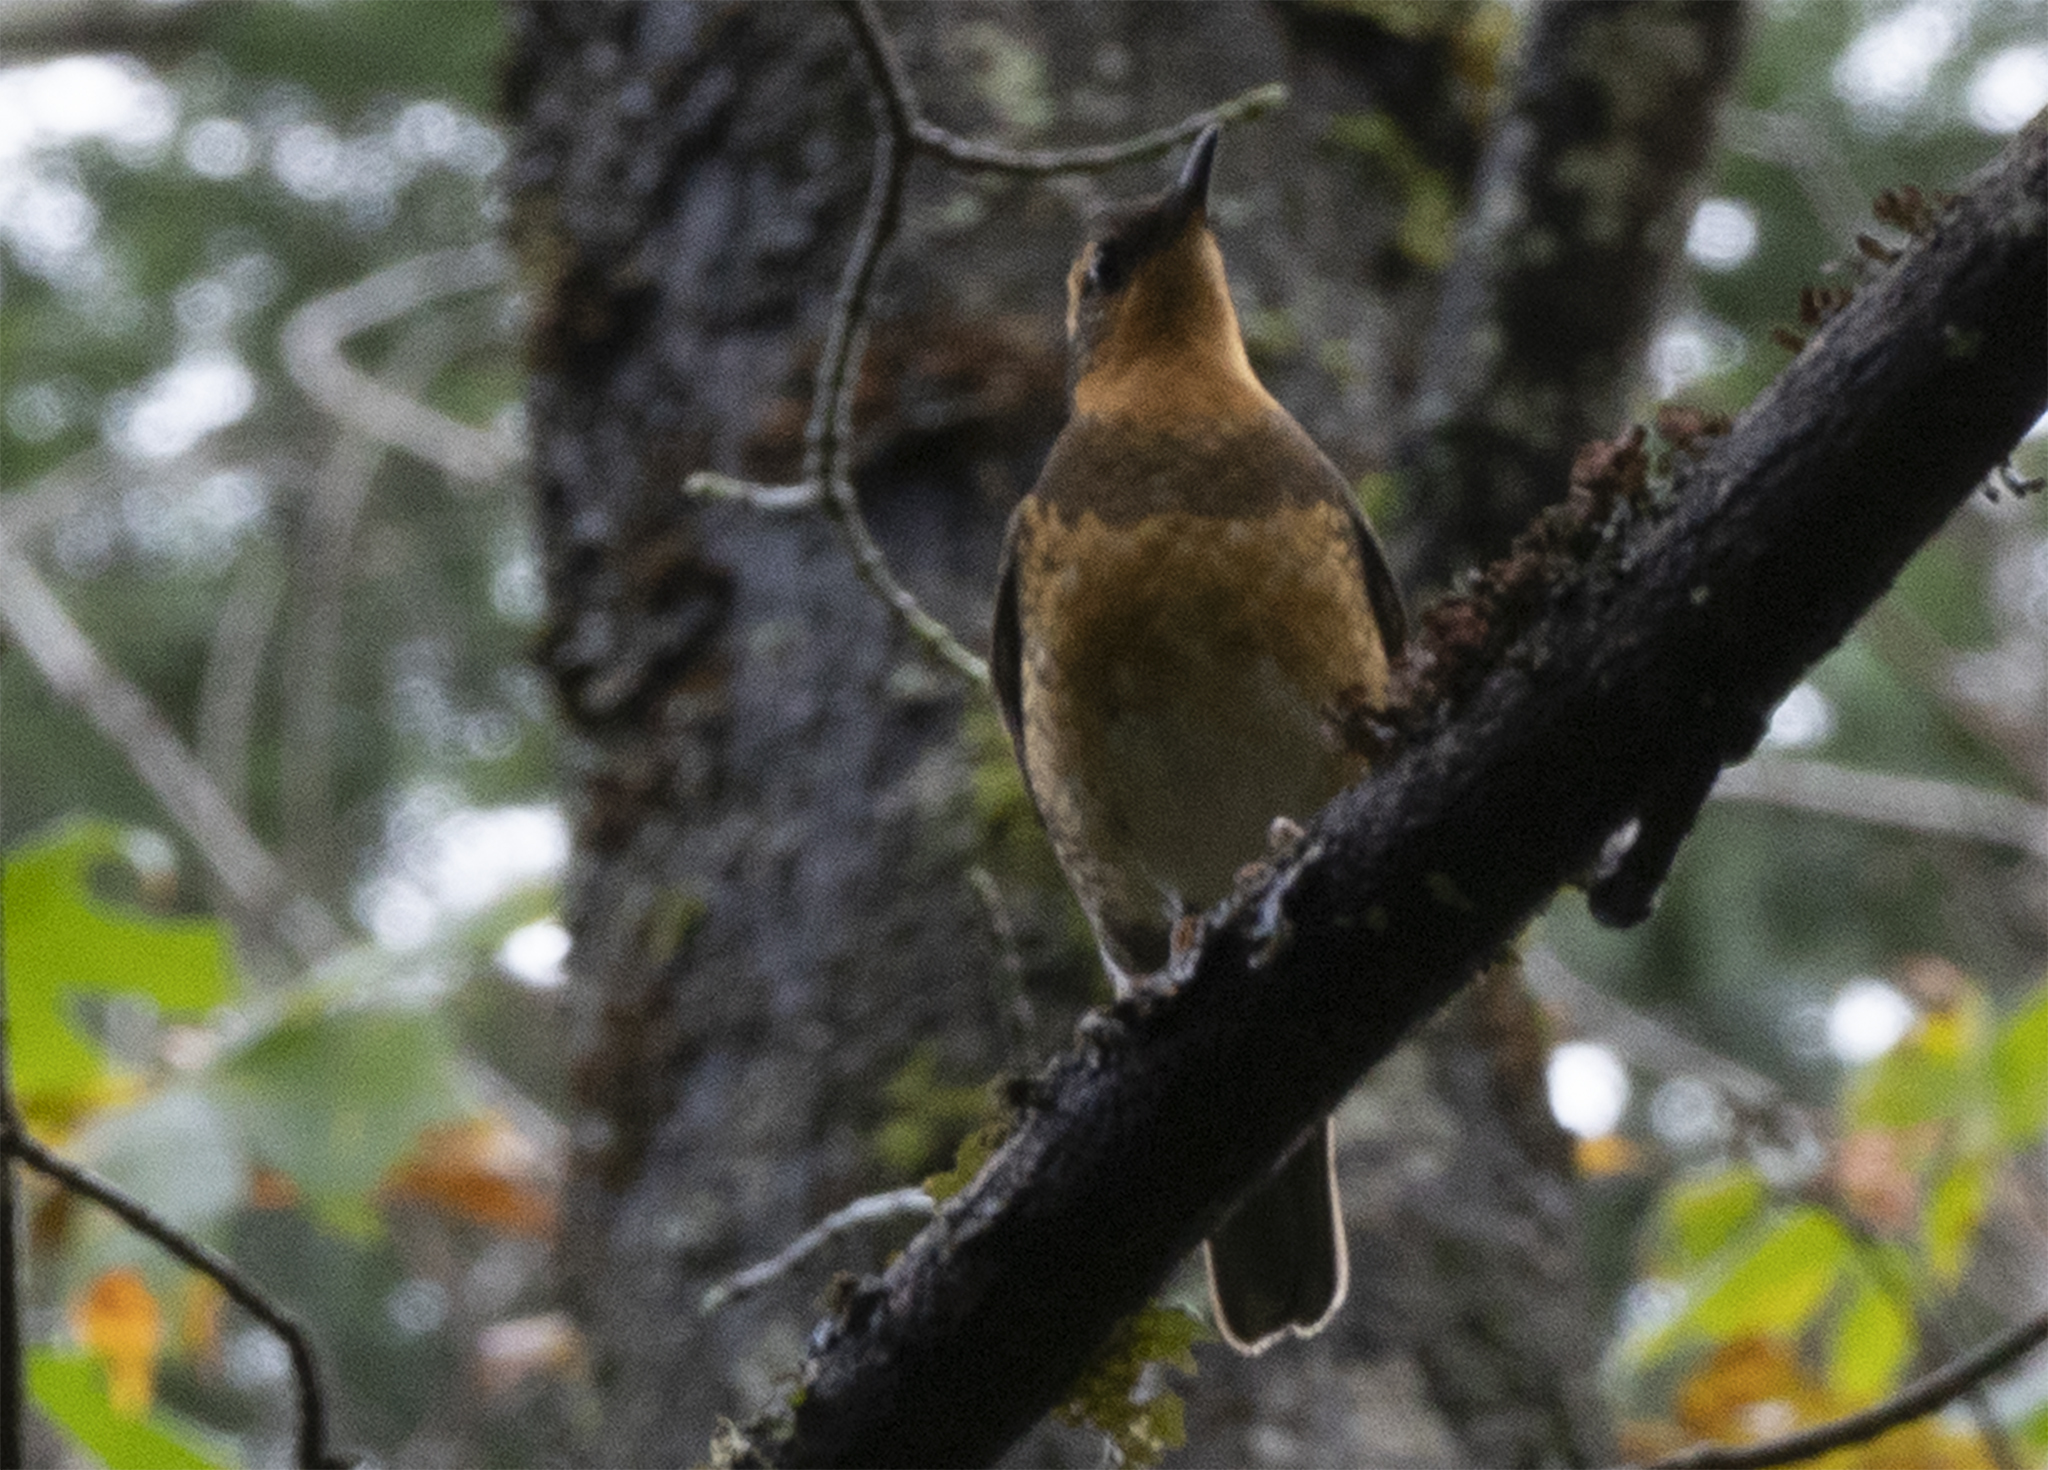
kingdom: Animalia
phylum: Chordata
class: Aves
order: Passeriformes
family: Turdidae
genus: Ixoreus
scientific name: Ixoreus naevius
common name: Varied thrush
